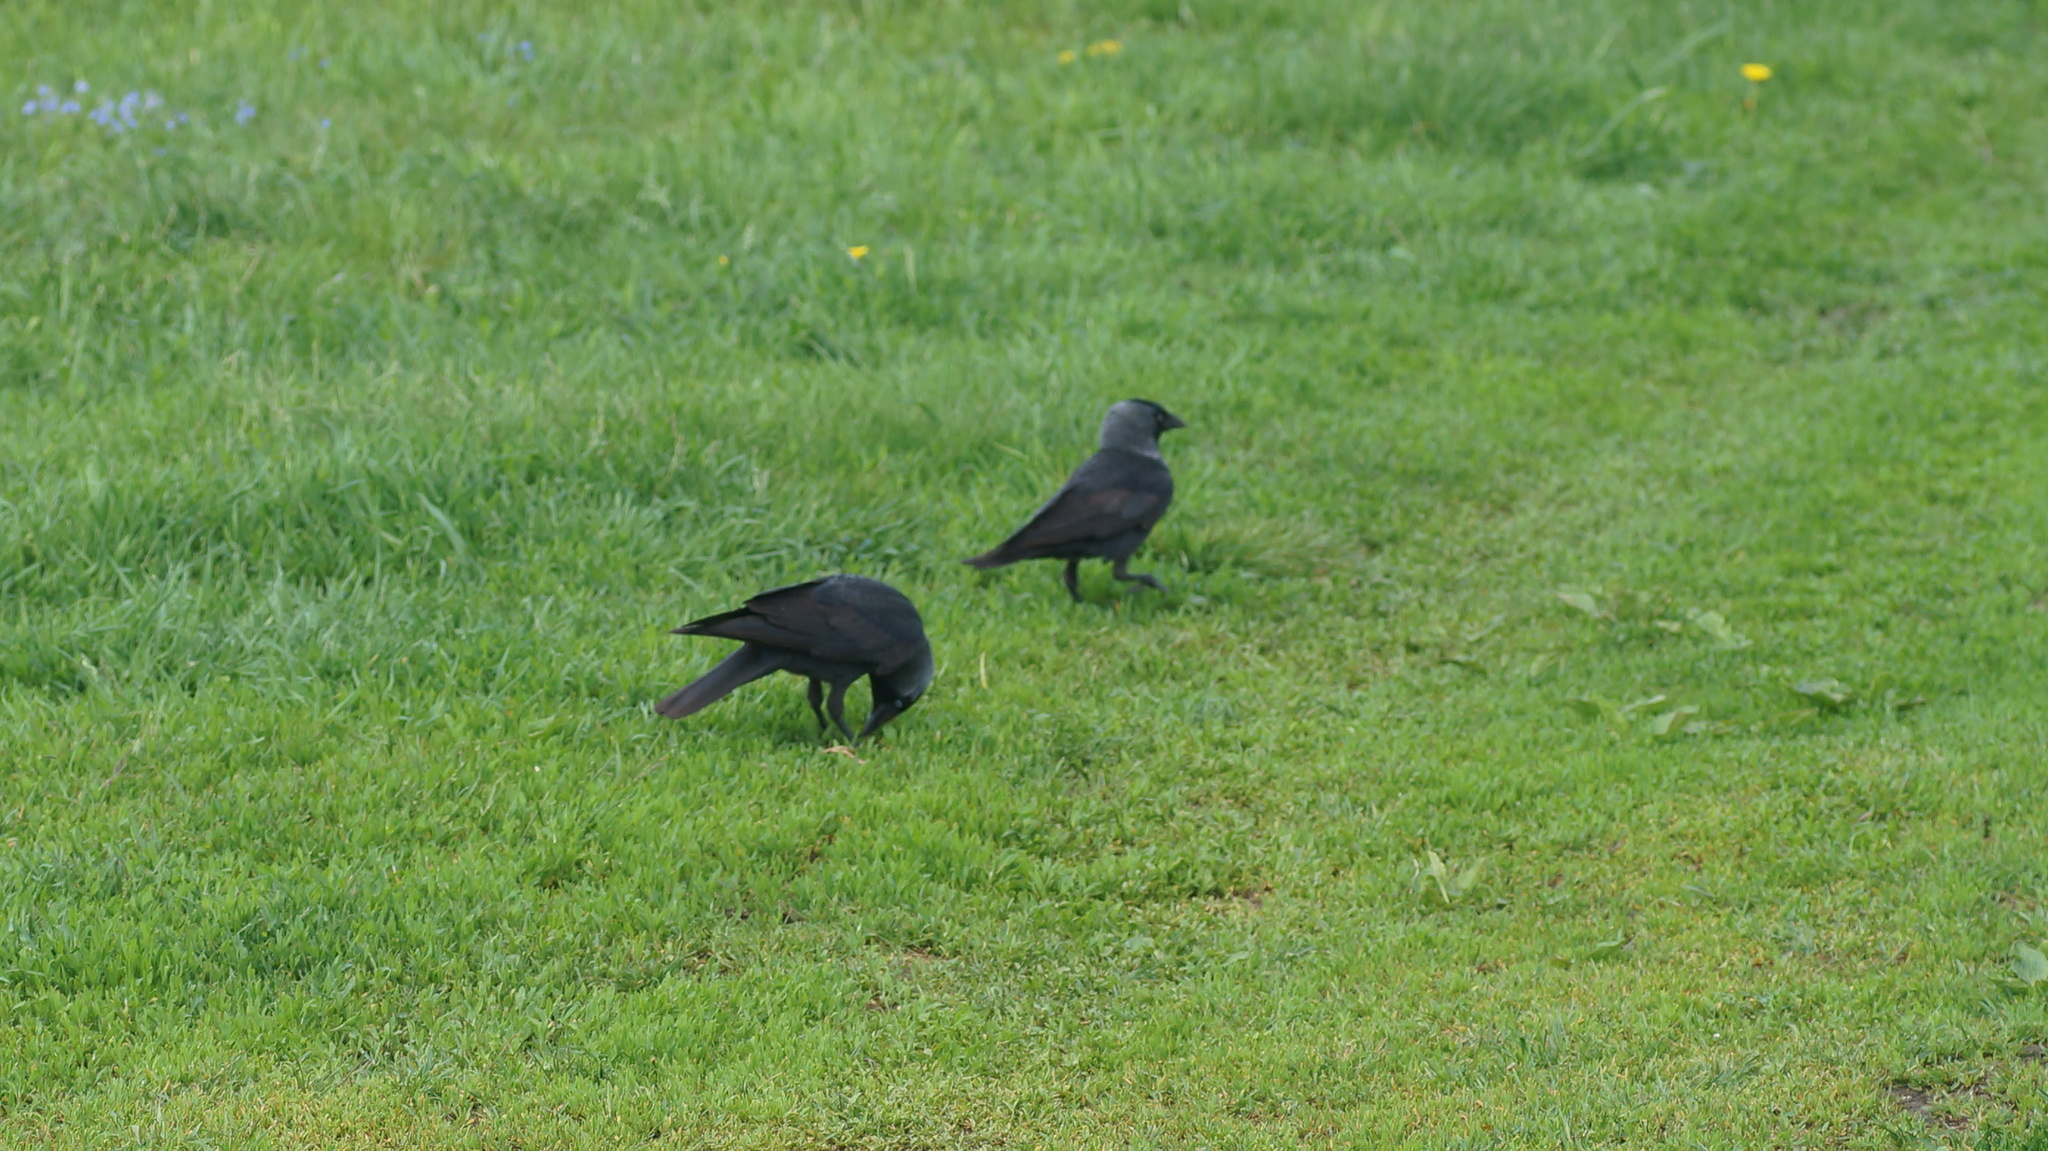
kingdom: Animalia
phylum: Chordata
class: Aves
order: Passeriformes
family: Corvidae
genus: Coloeus
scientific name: Coloeus monedula
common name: Western jackdaw
